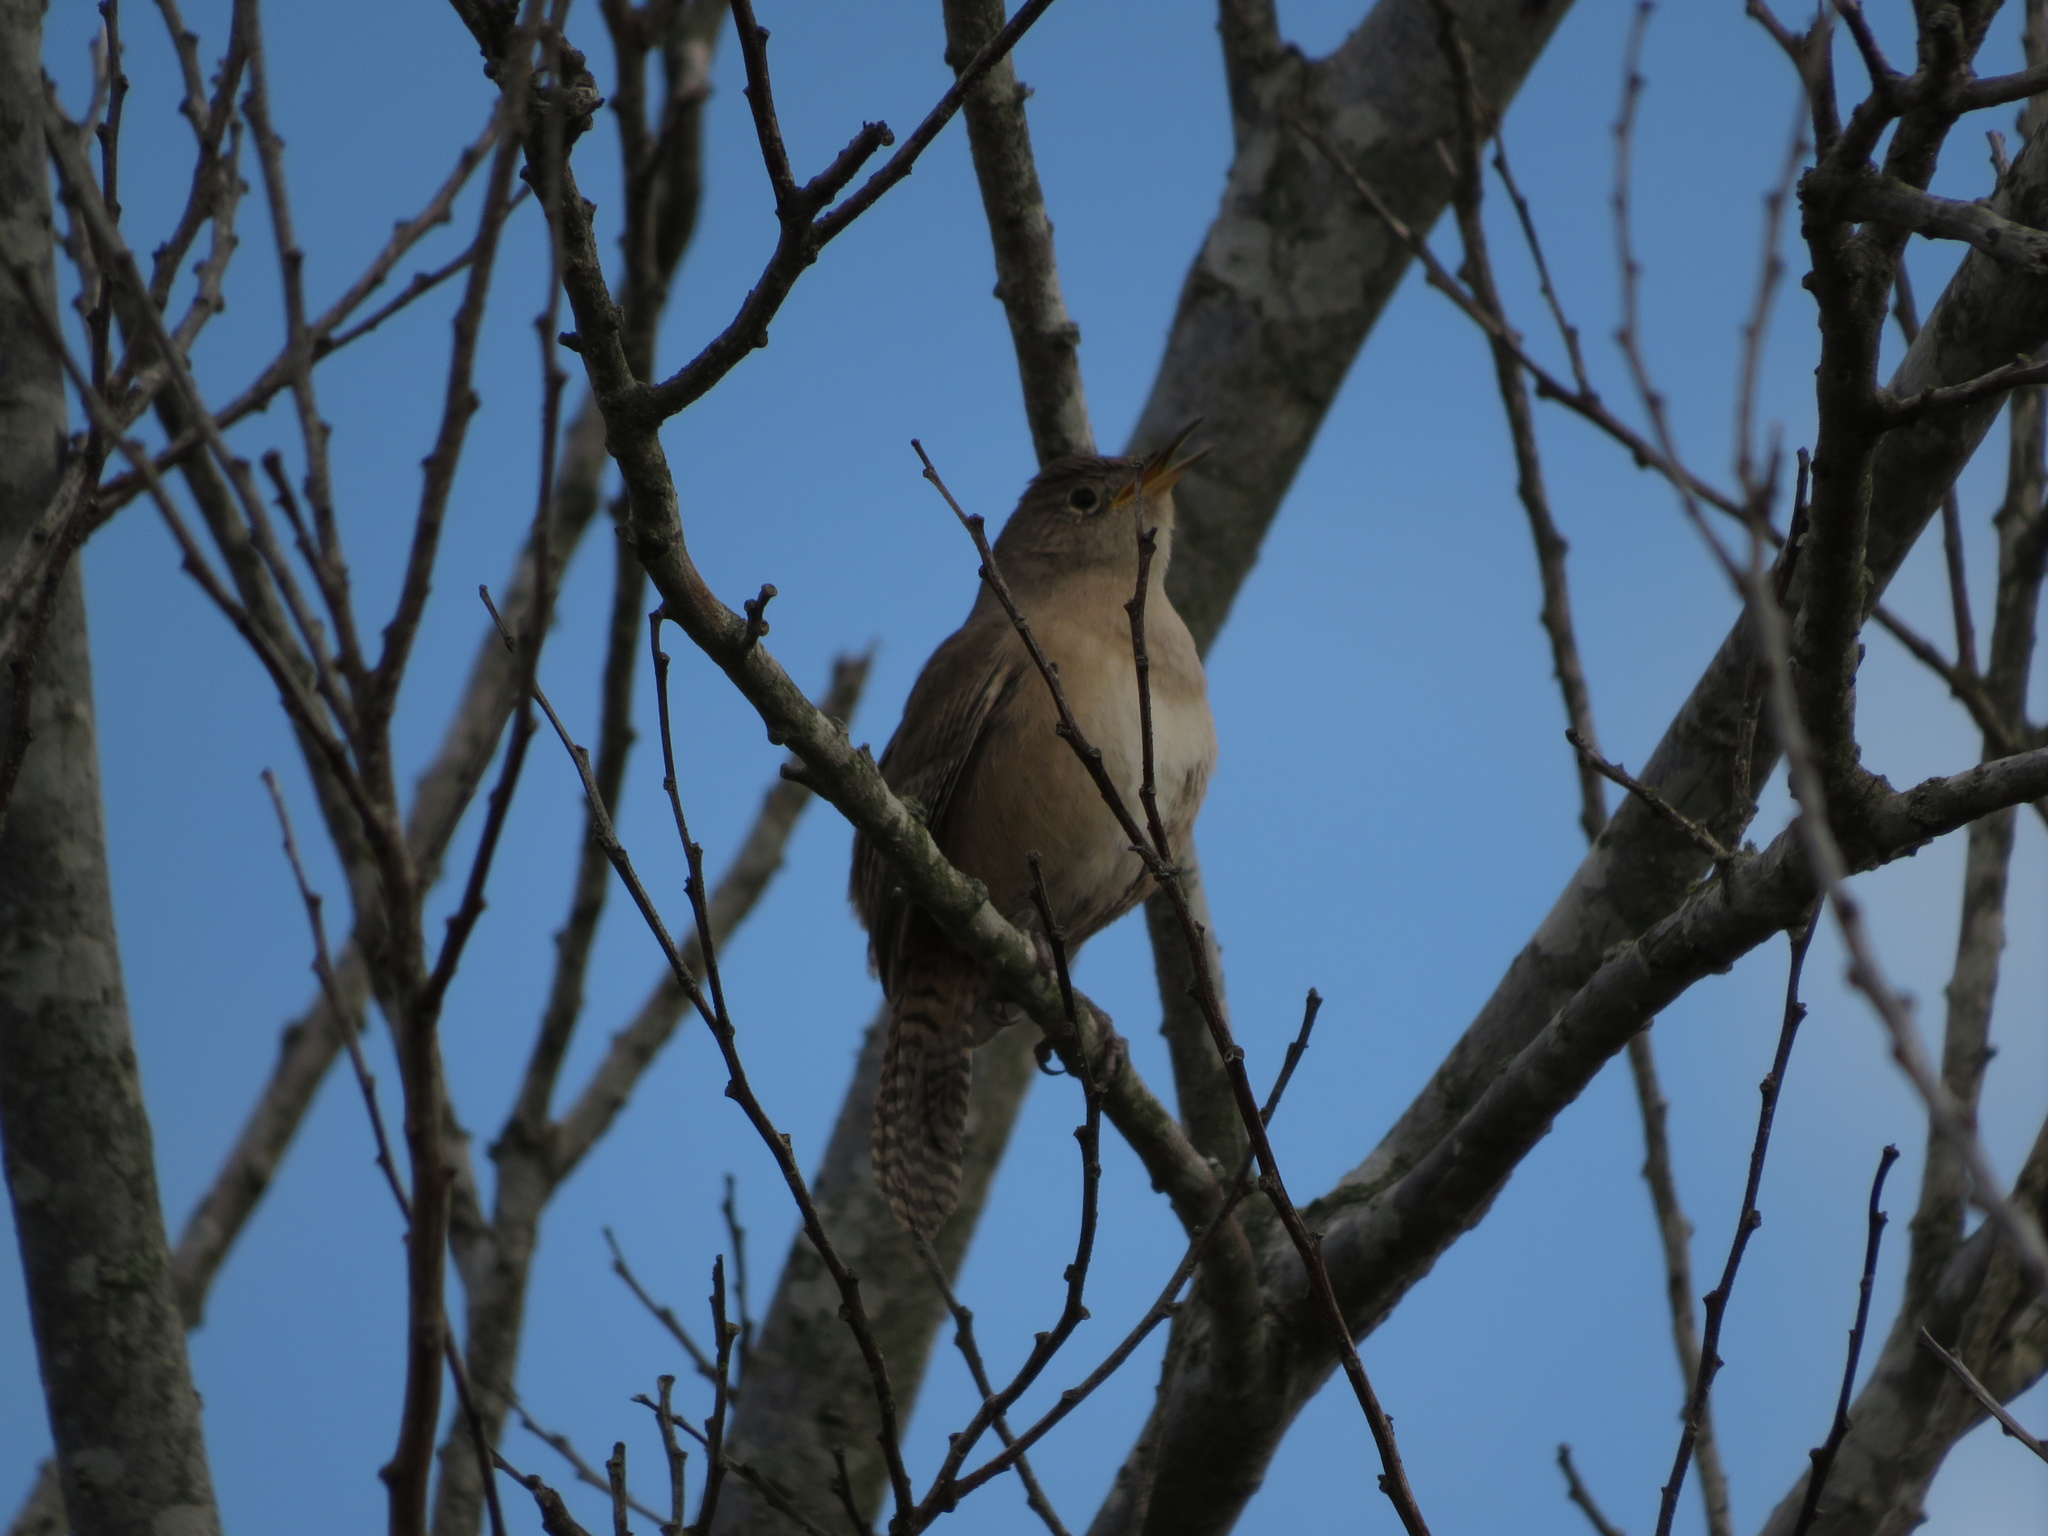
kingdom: Animalia
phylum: Chordata
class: Aves
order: Passeriformes
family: Troglodytidae
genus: Troglodytes
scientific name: Troglodytes aedon
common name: House wren
